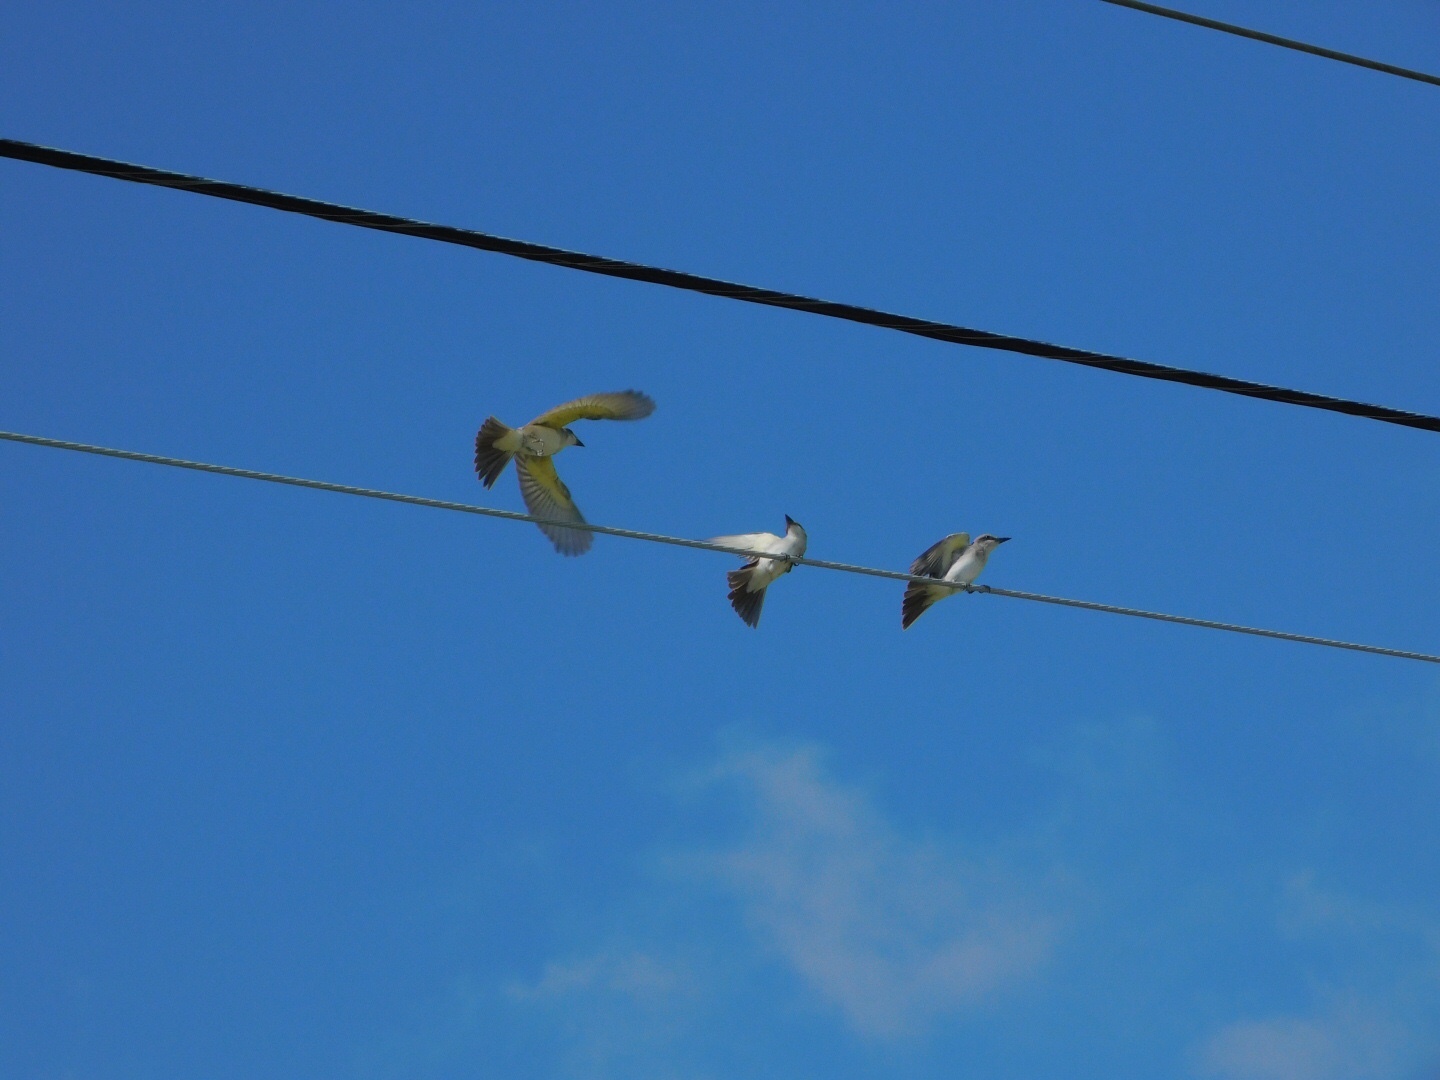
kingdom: Animalia
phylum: Chordata
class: Aves
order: Passeriformes
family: Tyrannidae
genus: Tyrannus
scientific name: Tyrannus dominicensis
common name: Gray kingbird
